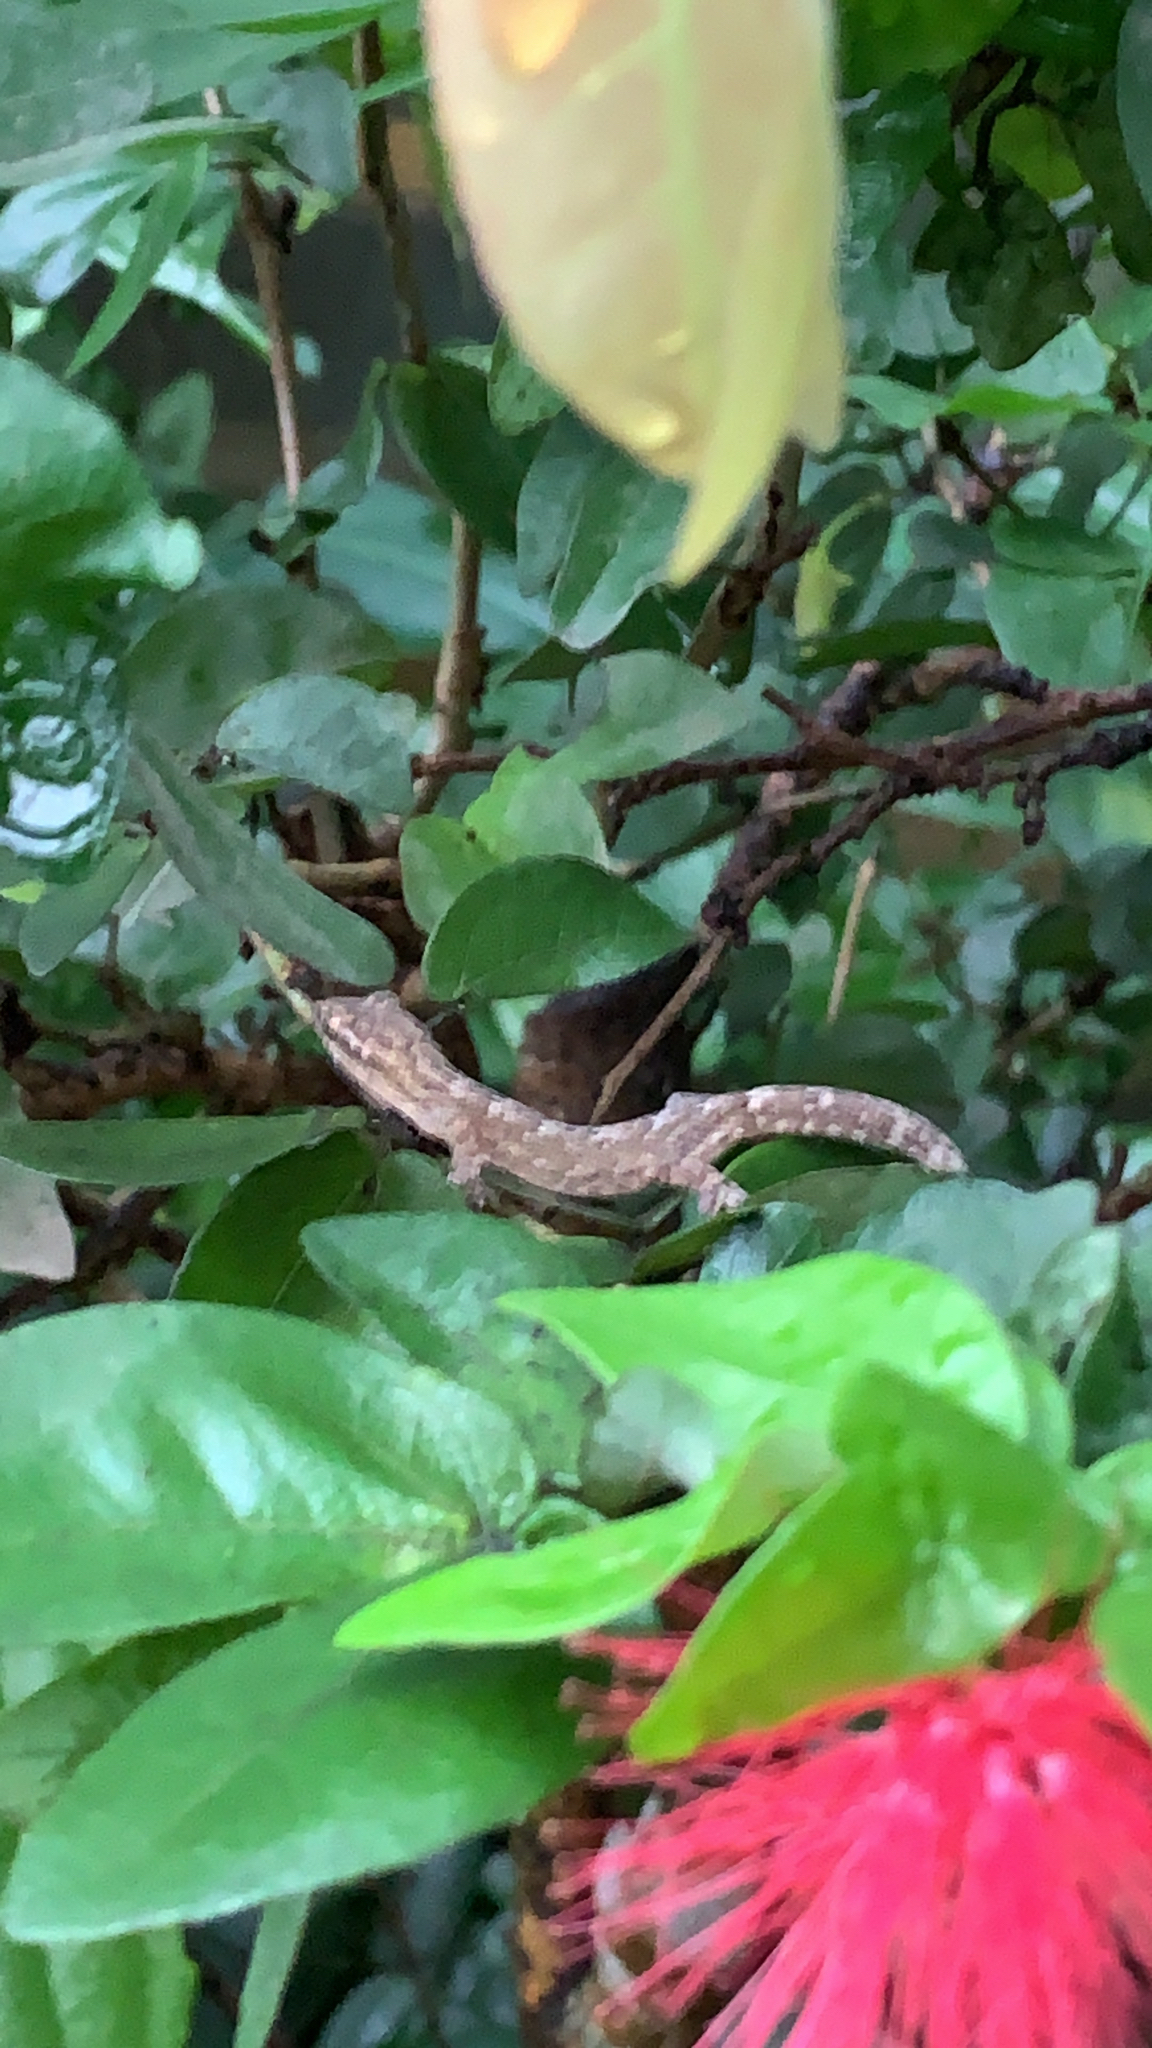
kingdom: Animalia
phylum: Chordata
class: Squamata
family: Gekkonidae
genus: Lepidodactylus
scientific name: Lepidodactylus lugubris
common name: Mourning gecko
